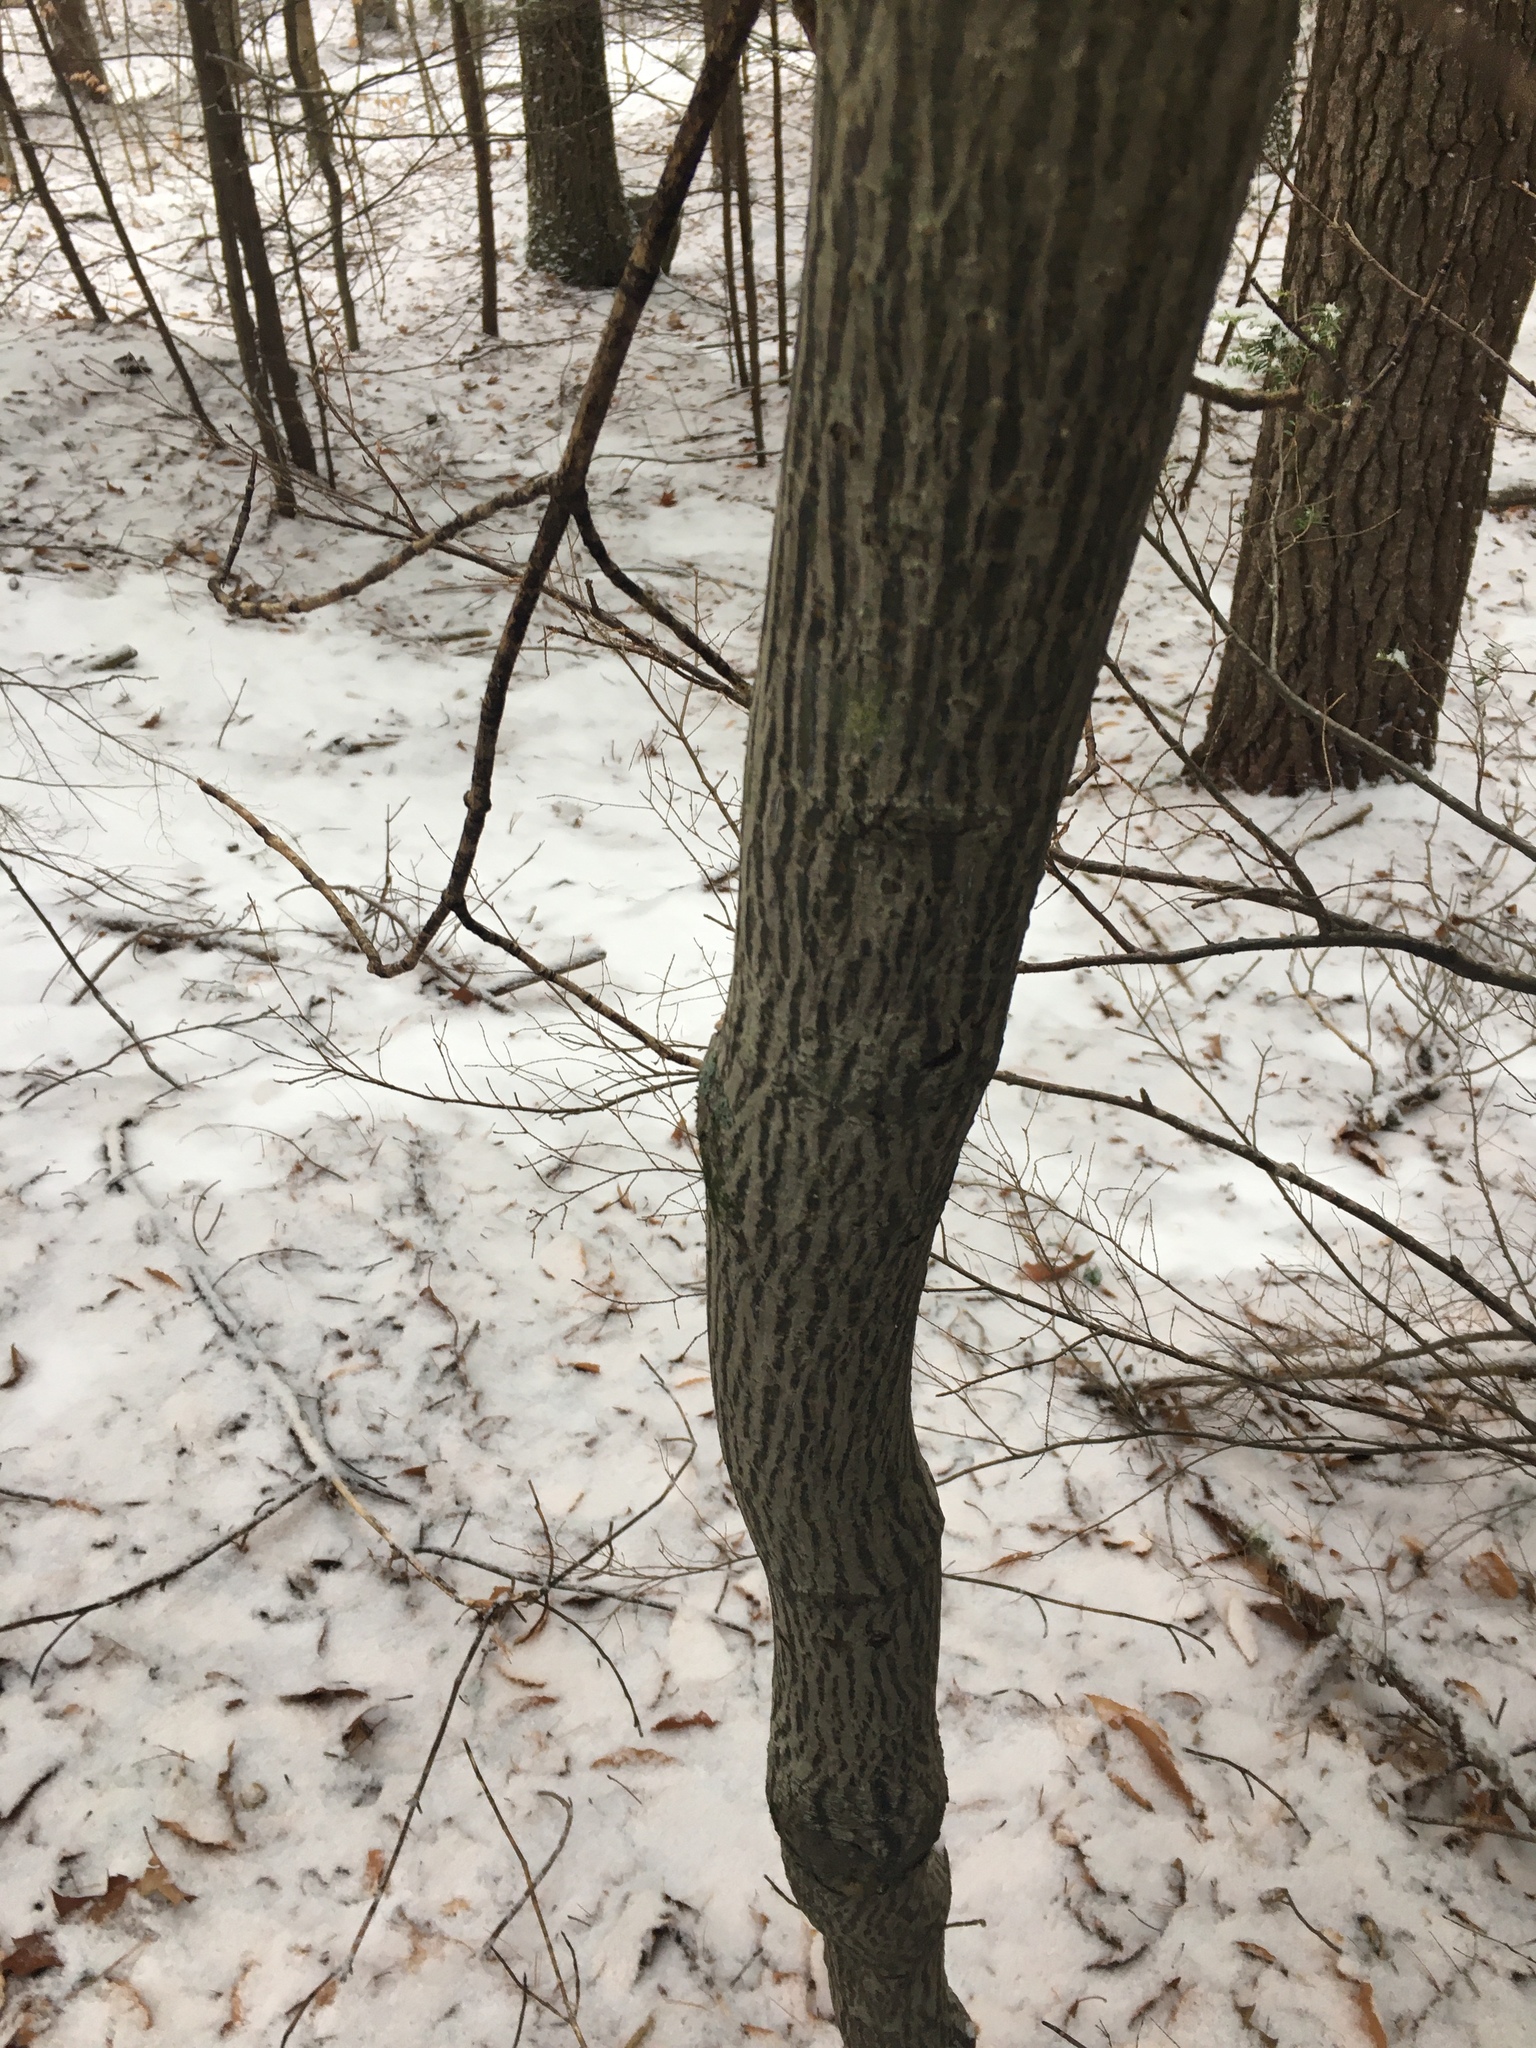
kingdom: Plantae
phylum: Tracheophyta
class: Magnoliopsida
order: Sapindales
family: Sapindaceae
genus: Acer
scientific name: Acer pensylvanicum
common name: Moosewood
